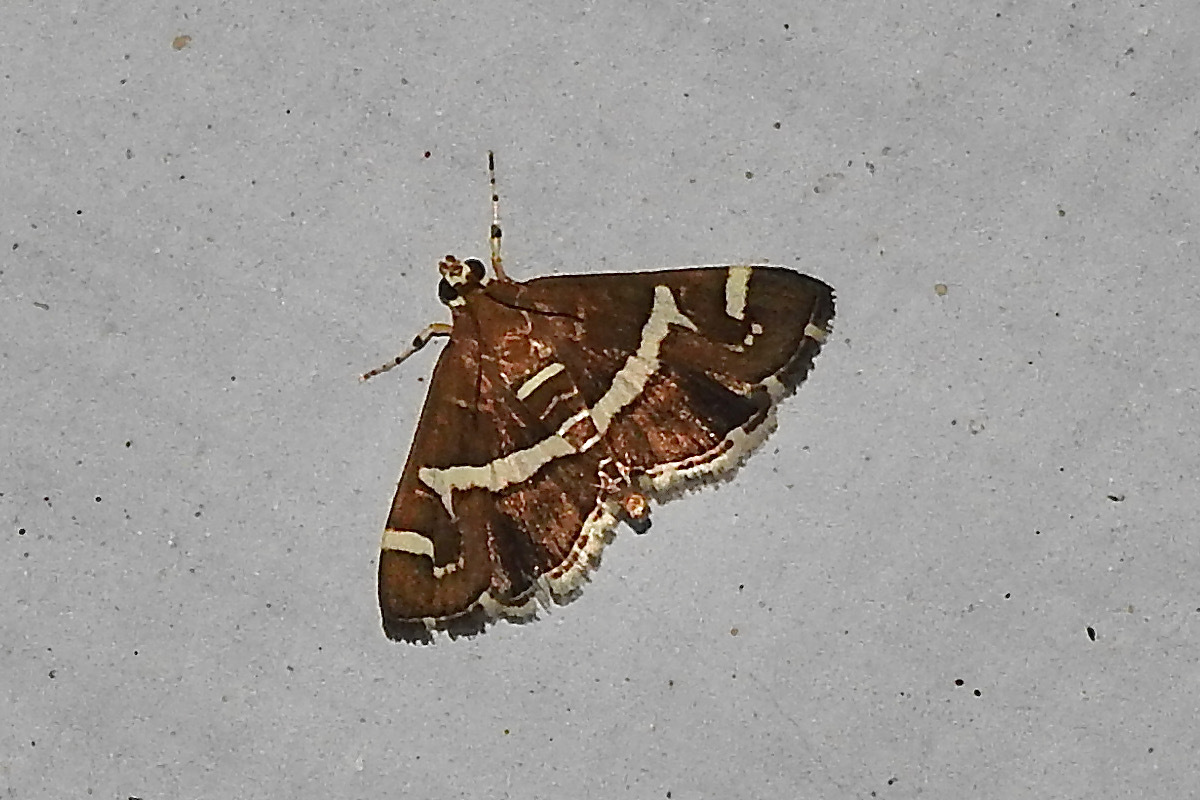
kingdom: Animalia
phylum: Arthropoda
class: Insecta
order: Lepidoptera
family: Crambidae
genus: Spoladea
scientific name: Spoladea recurvalis
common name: Beet webworm moth
